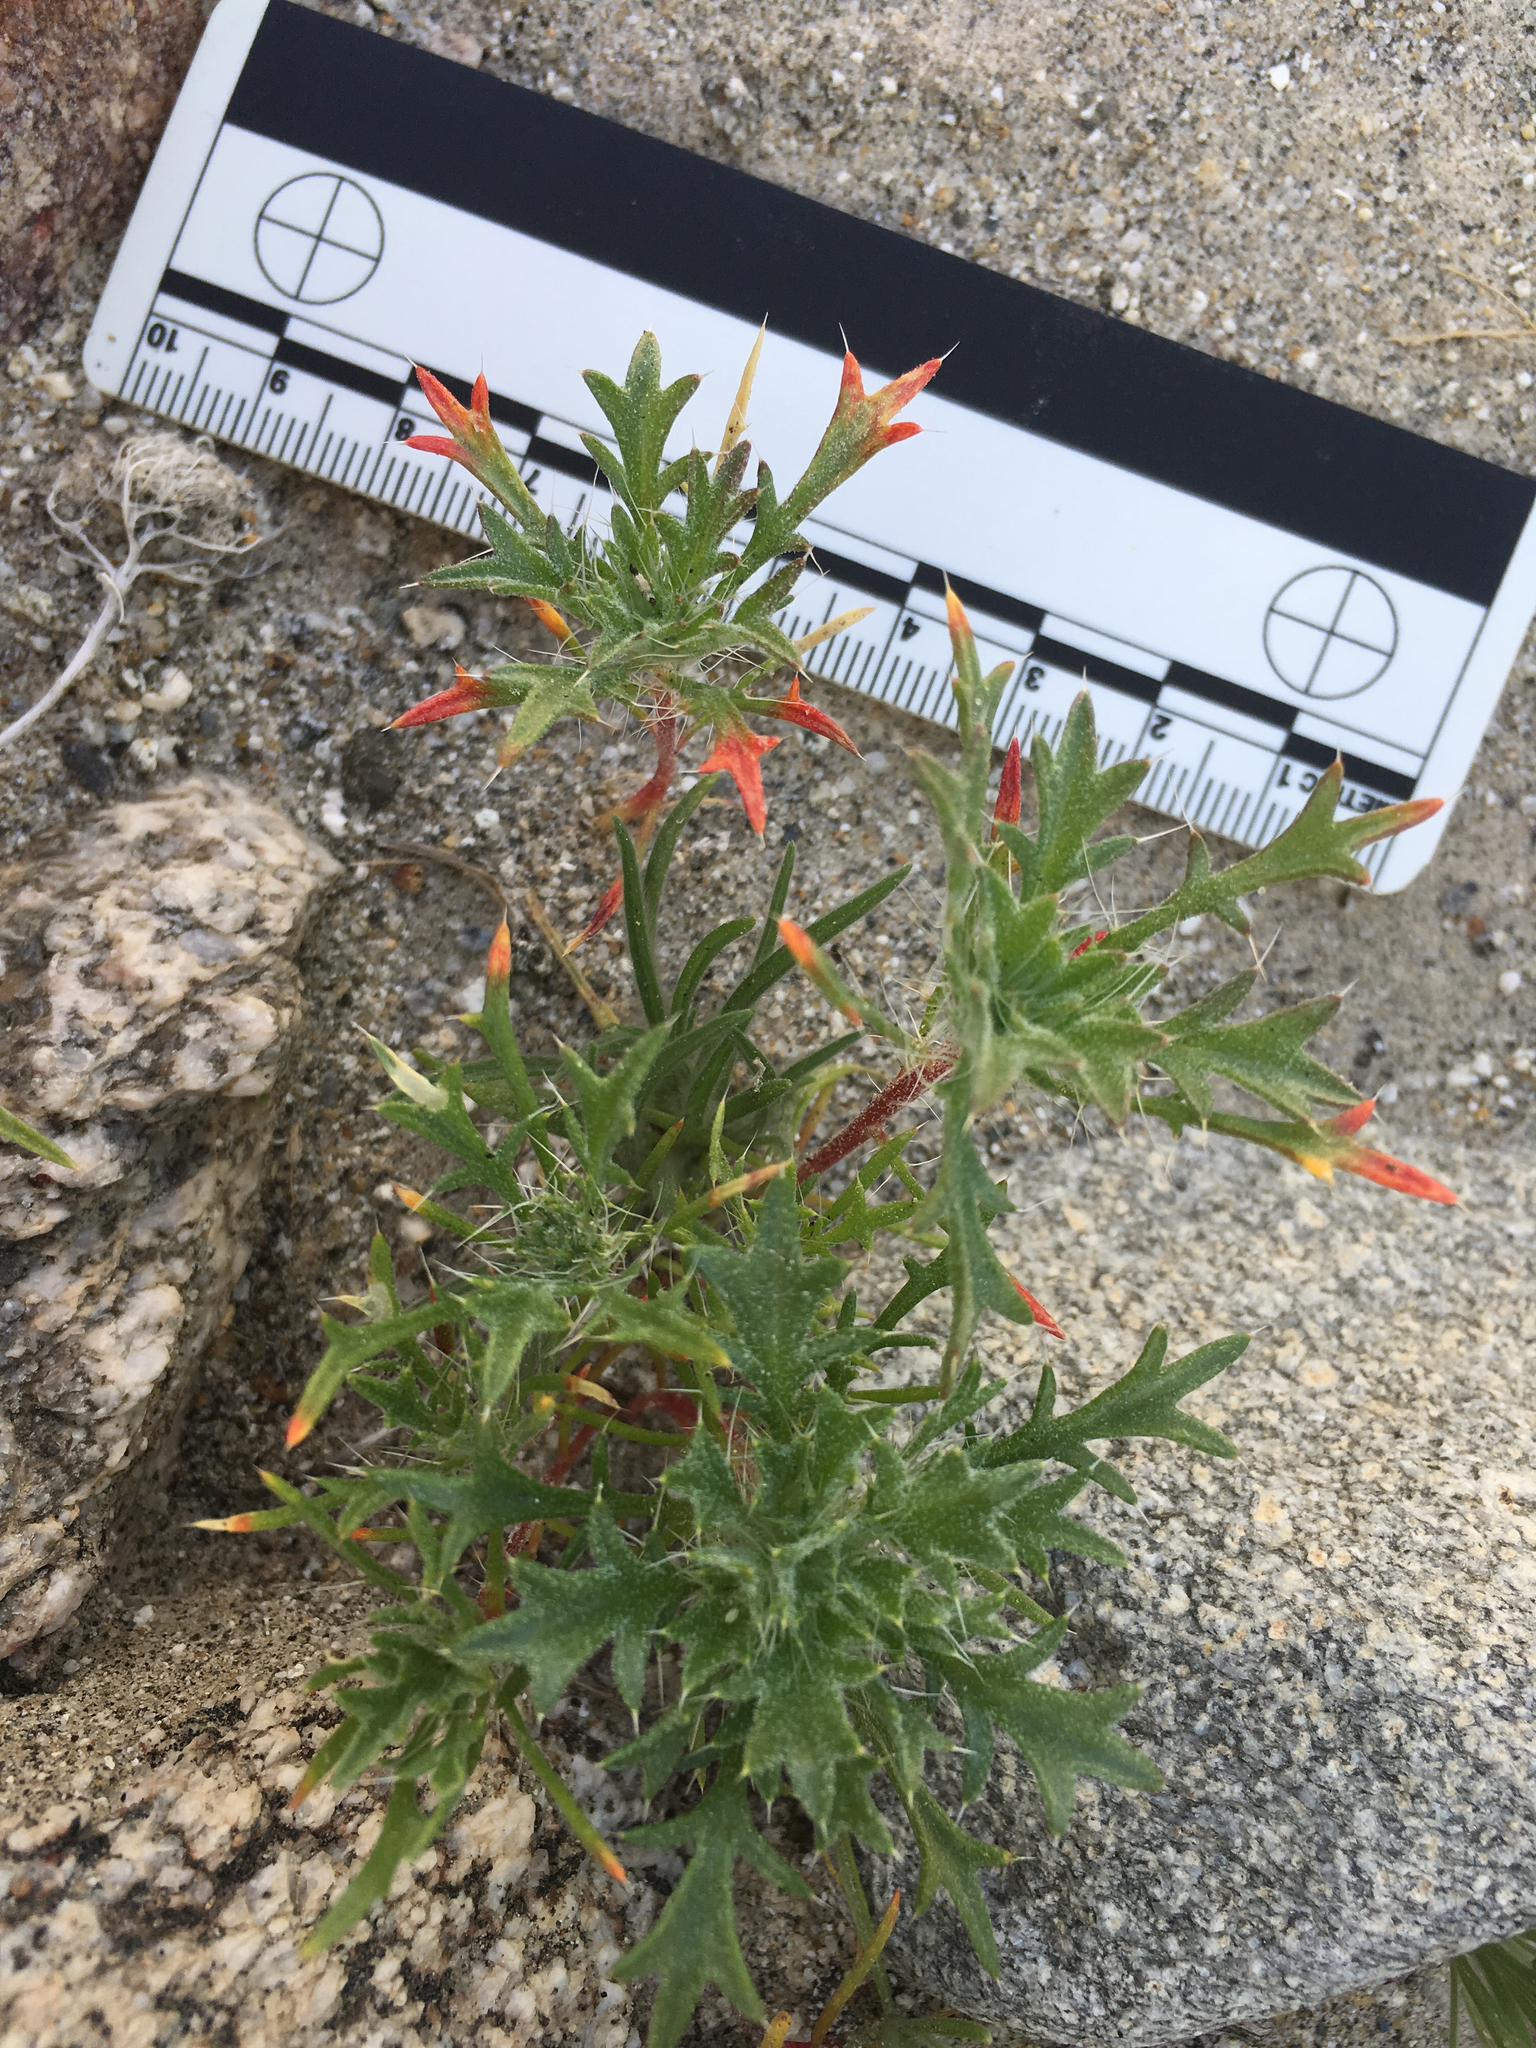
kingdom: Plantae
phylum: Tracheophyta
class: Magnoliopsida
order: Ericales
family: Polemoniaceae
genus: Langloisia
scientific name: Langloisia setosissima
